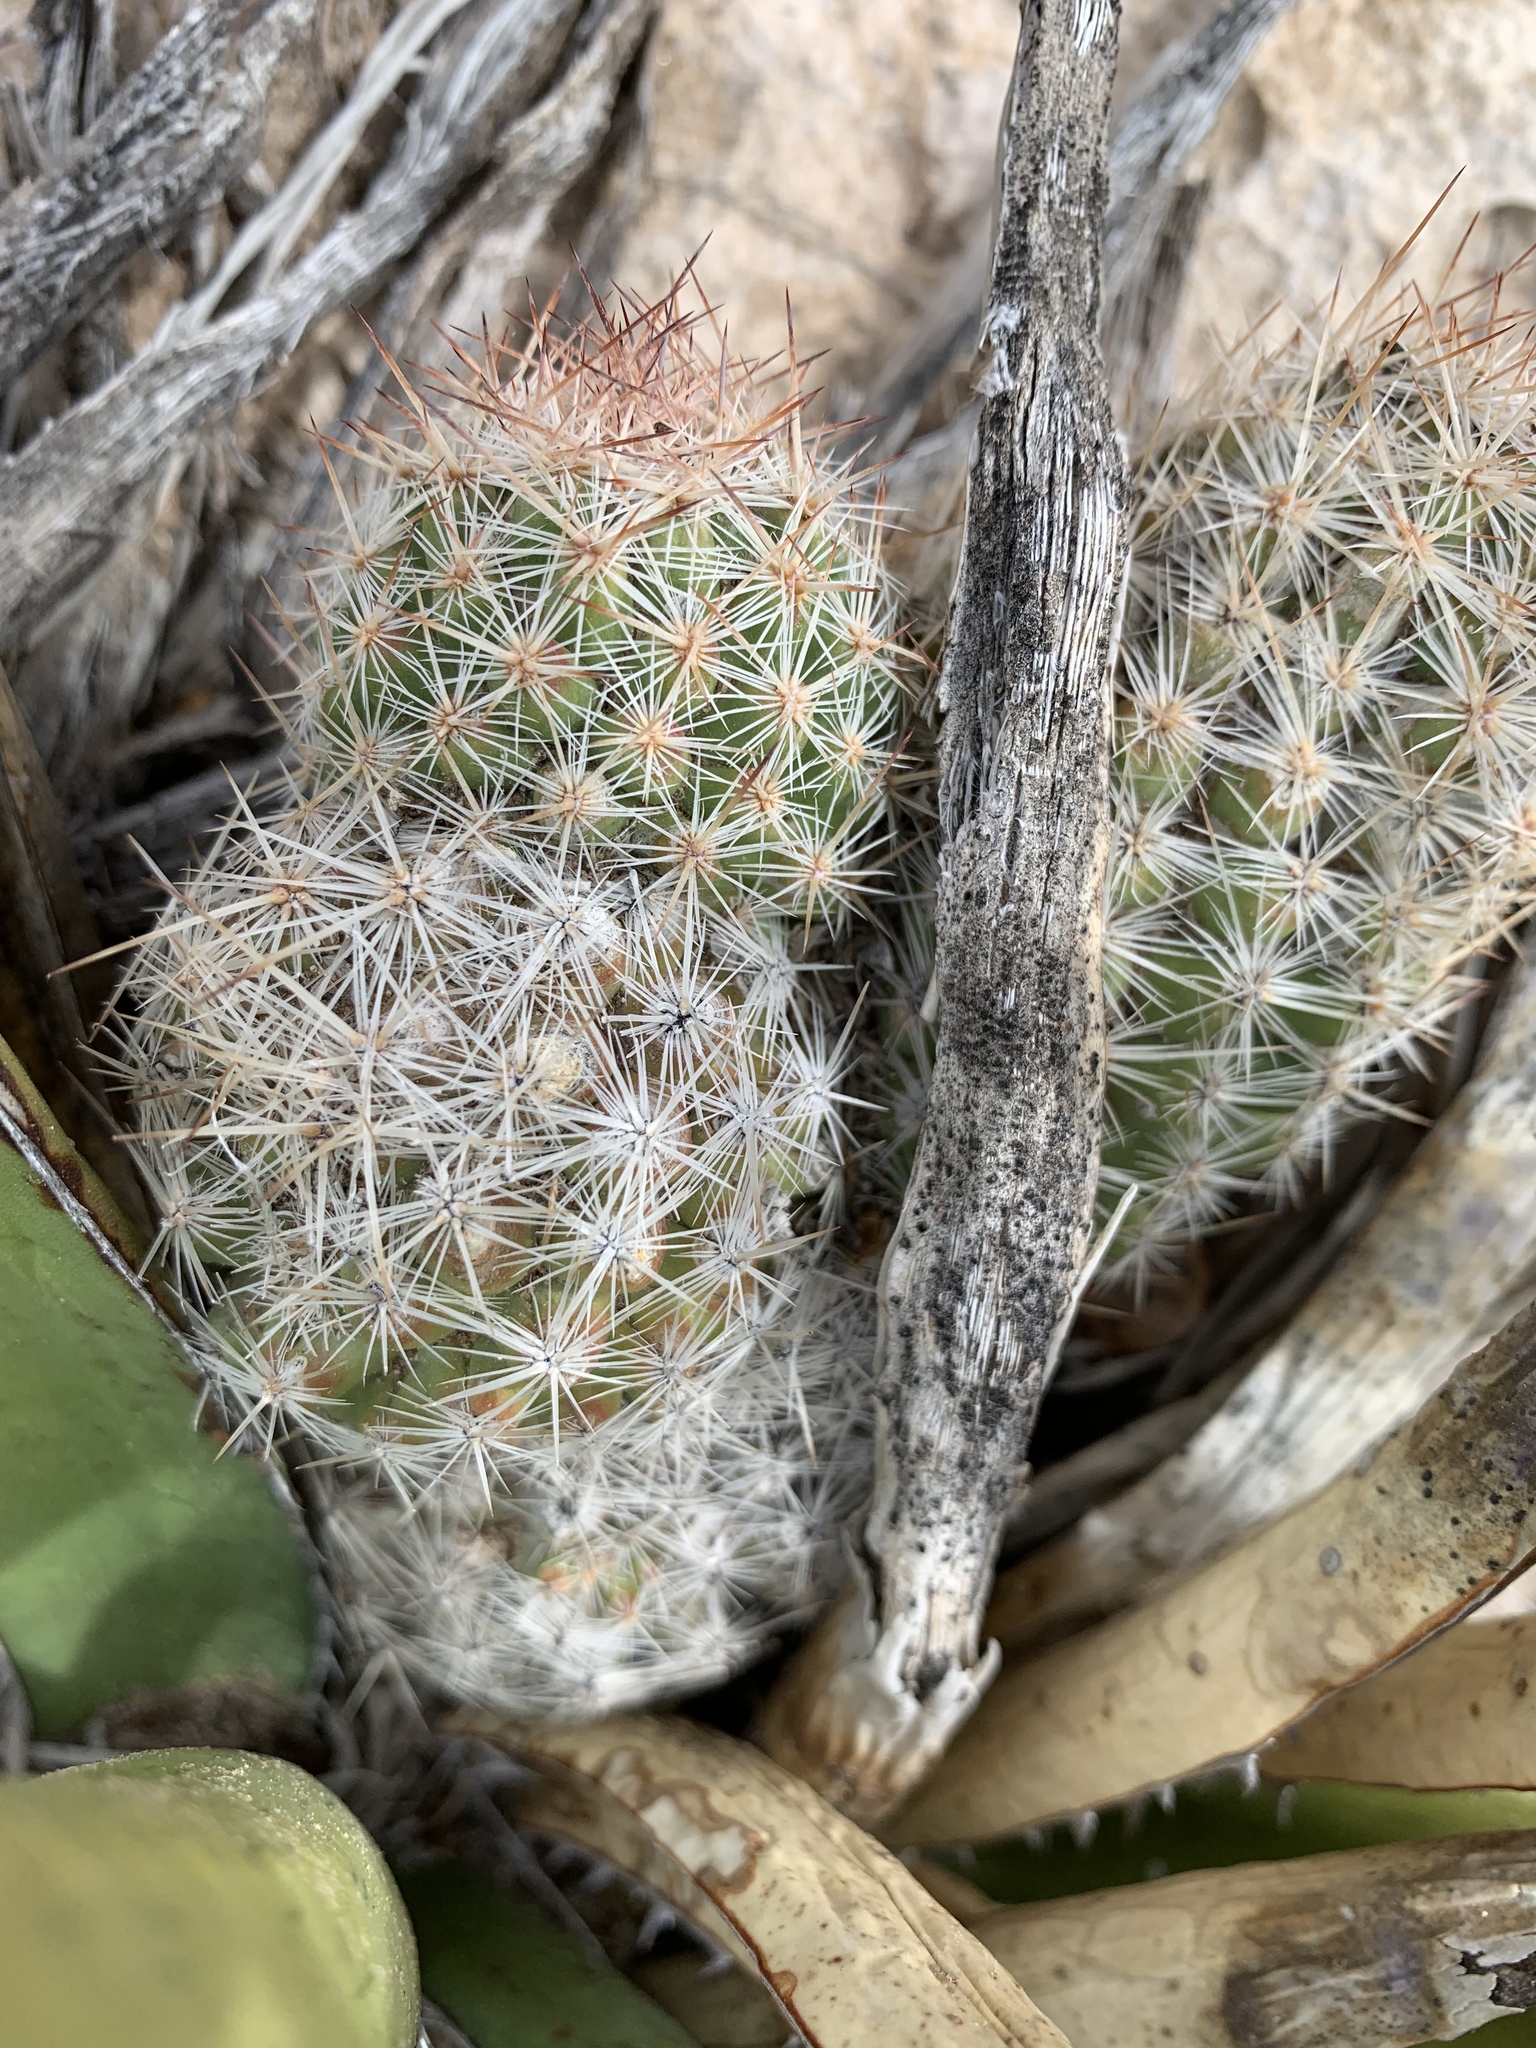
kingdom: Plantae
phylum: Tracheophyta
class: Magnoliopsida
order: Caryophyllales
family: Cactaceae
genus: Pelecyphora
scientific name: Pelecyphora tuberculosa
